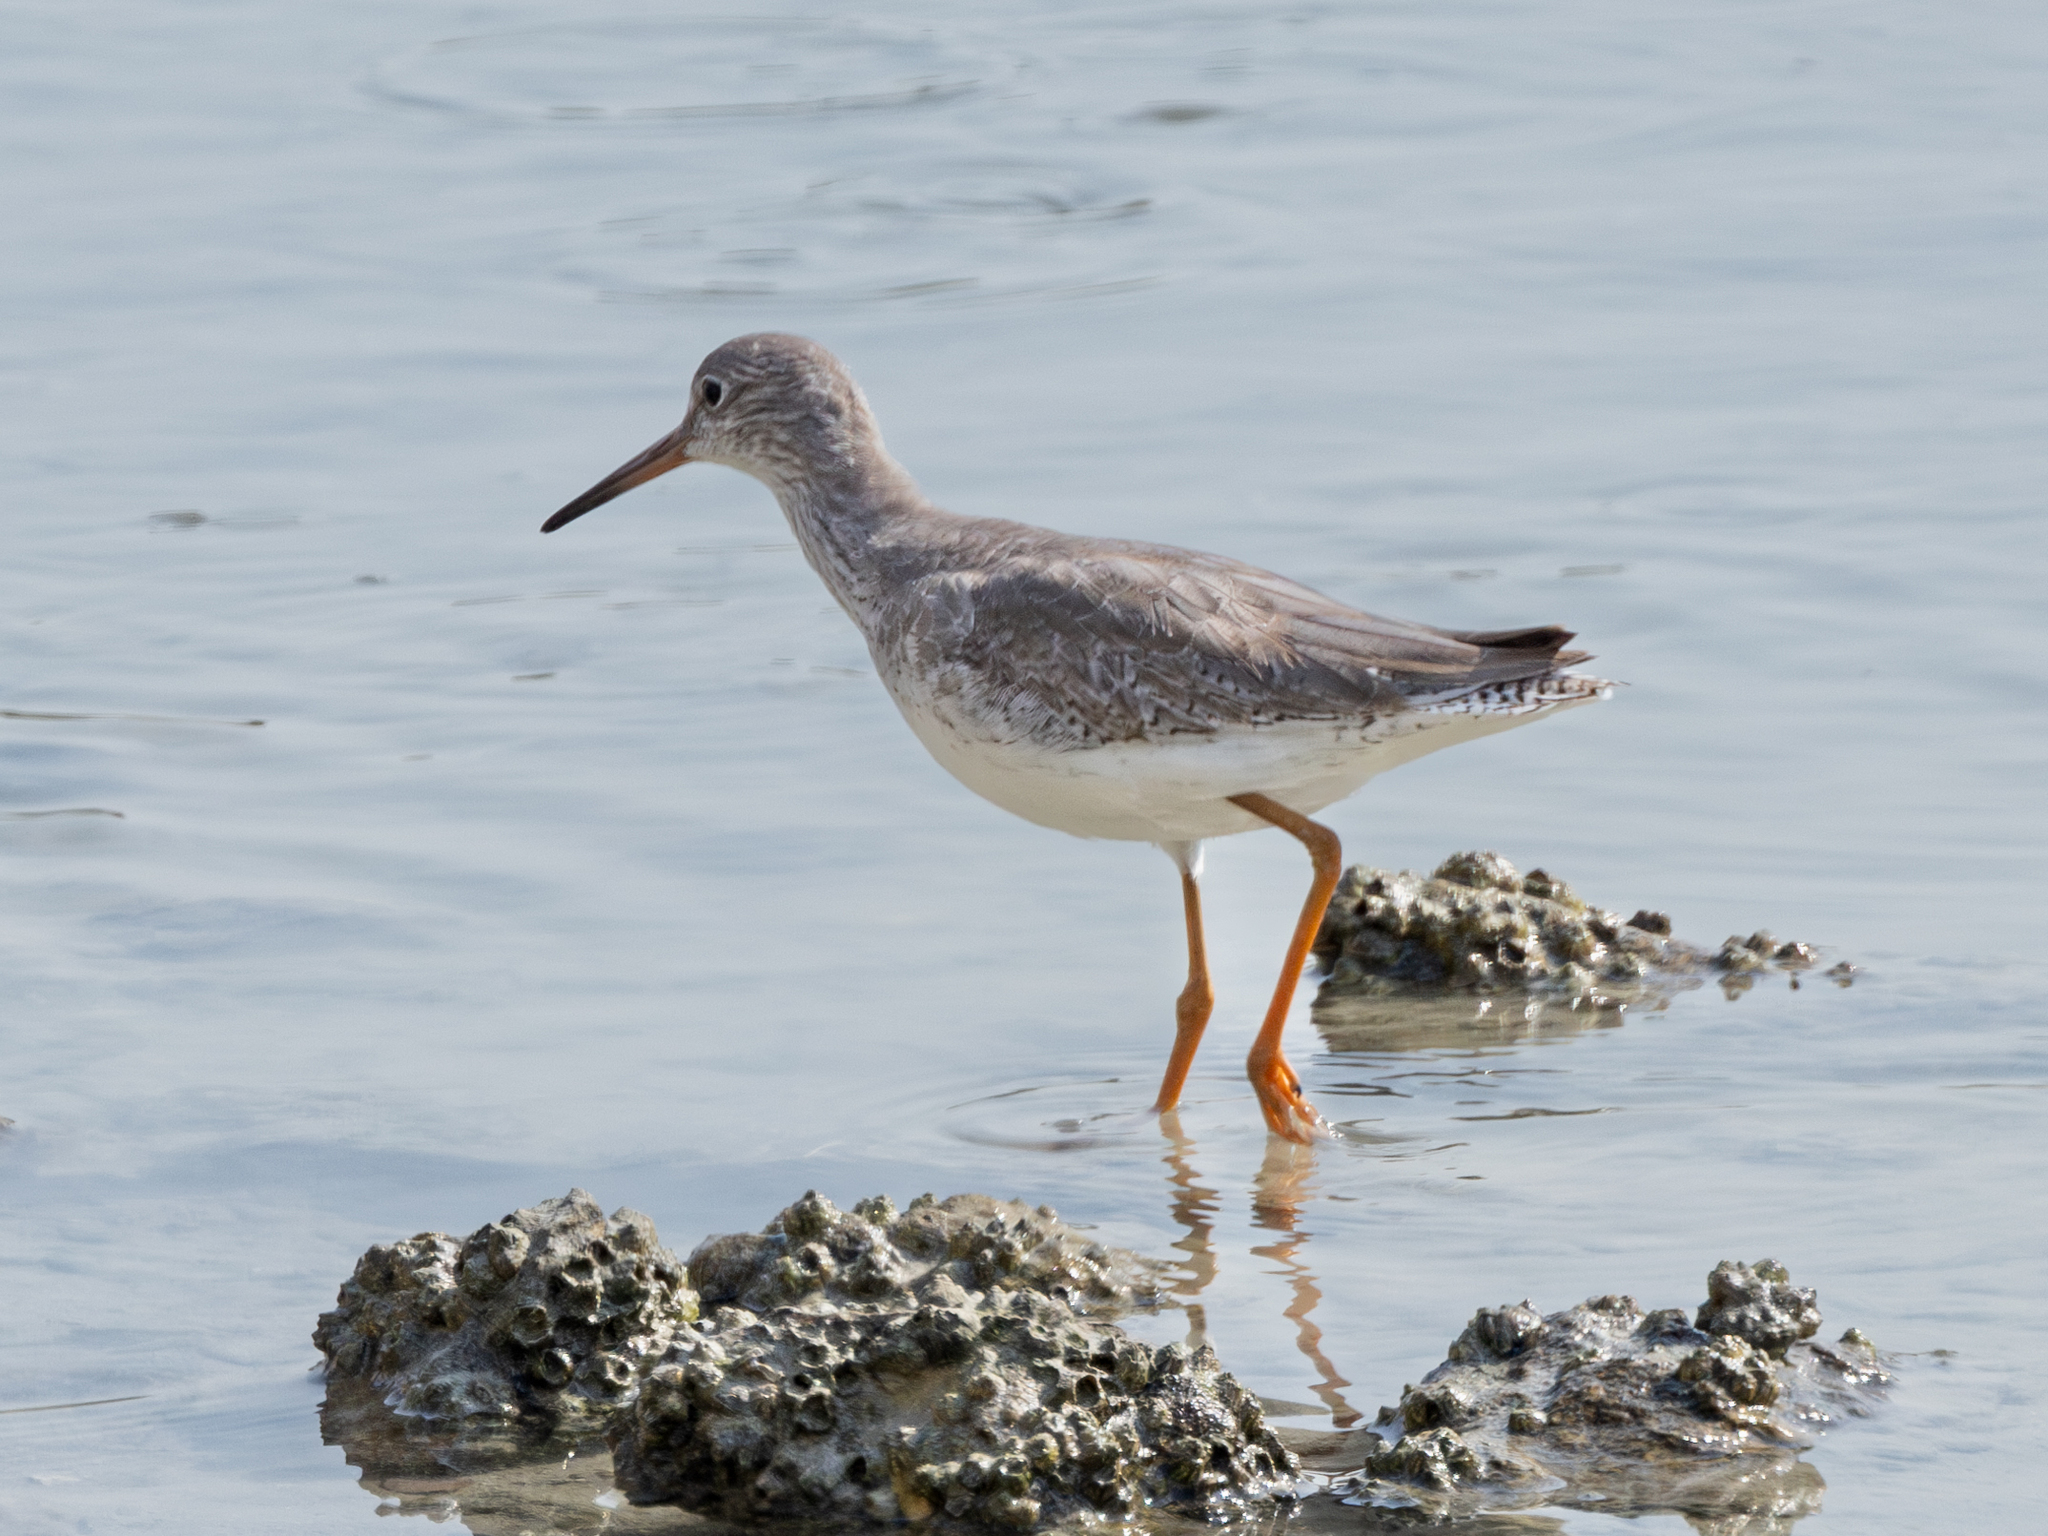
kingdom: Animalia
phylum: Chordata
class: Aves
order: Charadriiformes
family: Scolopacidae
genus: Tringa
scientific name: Tringa totanus
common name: Common redshank
